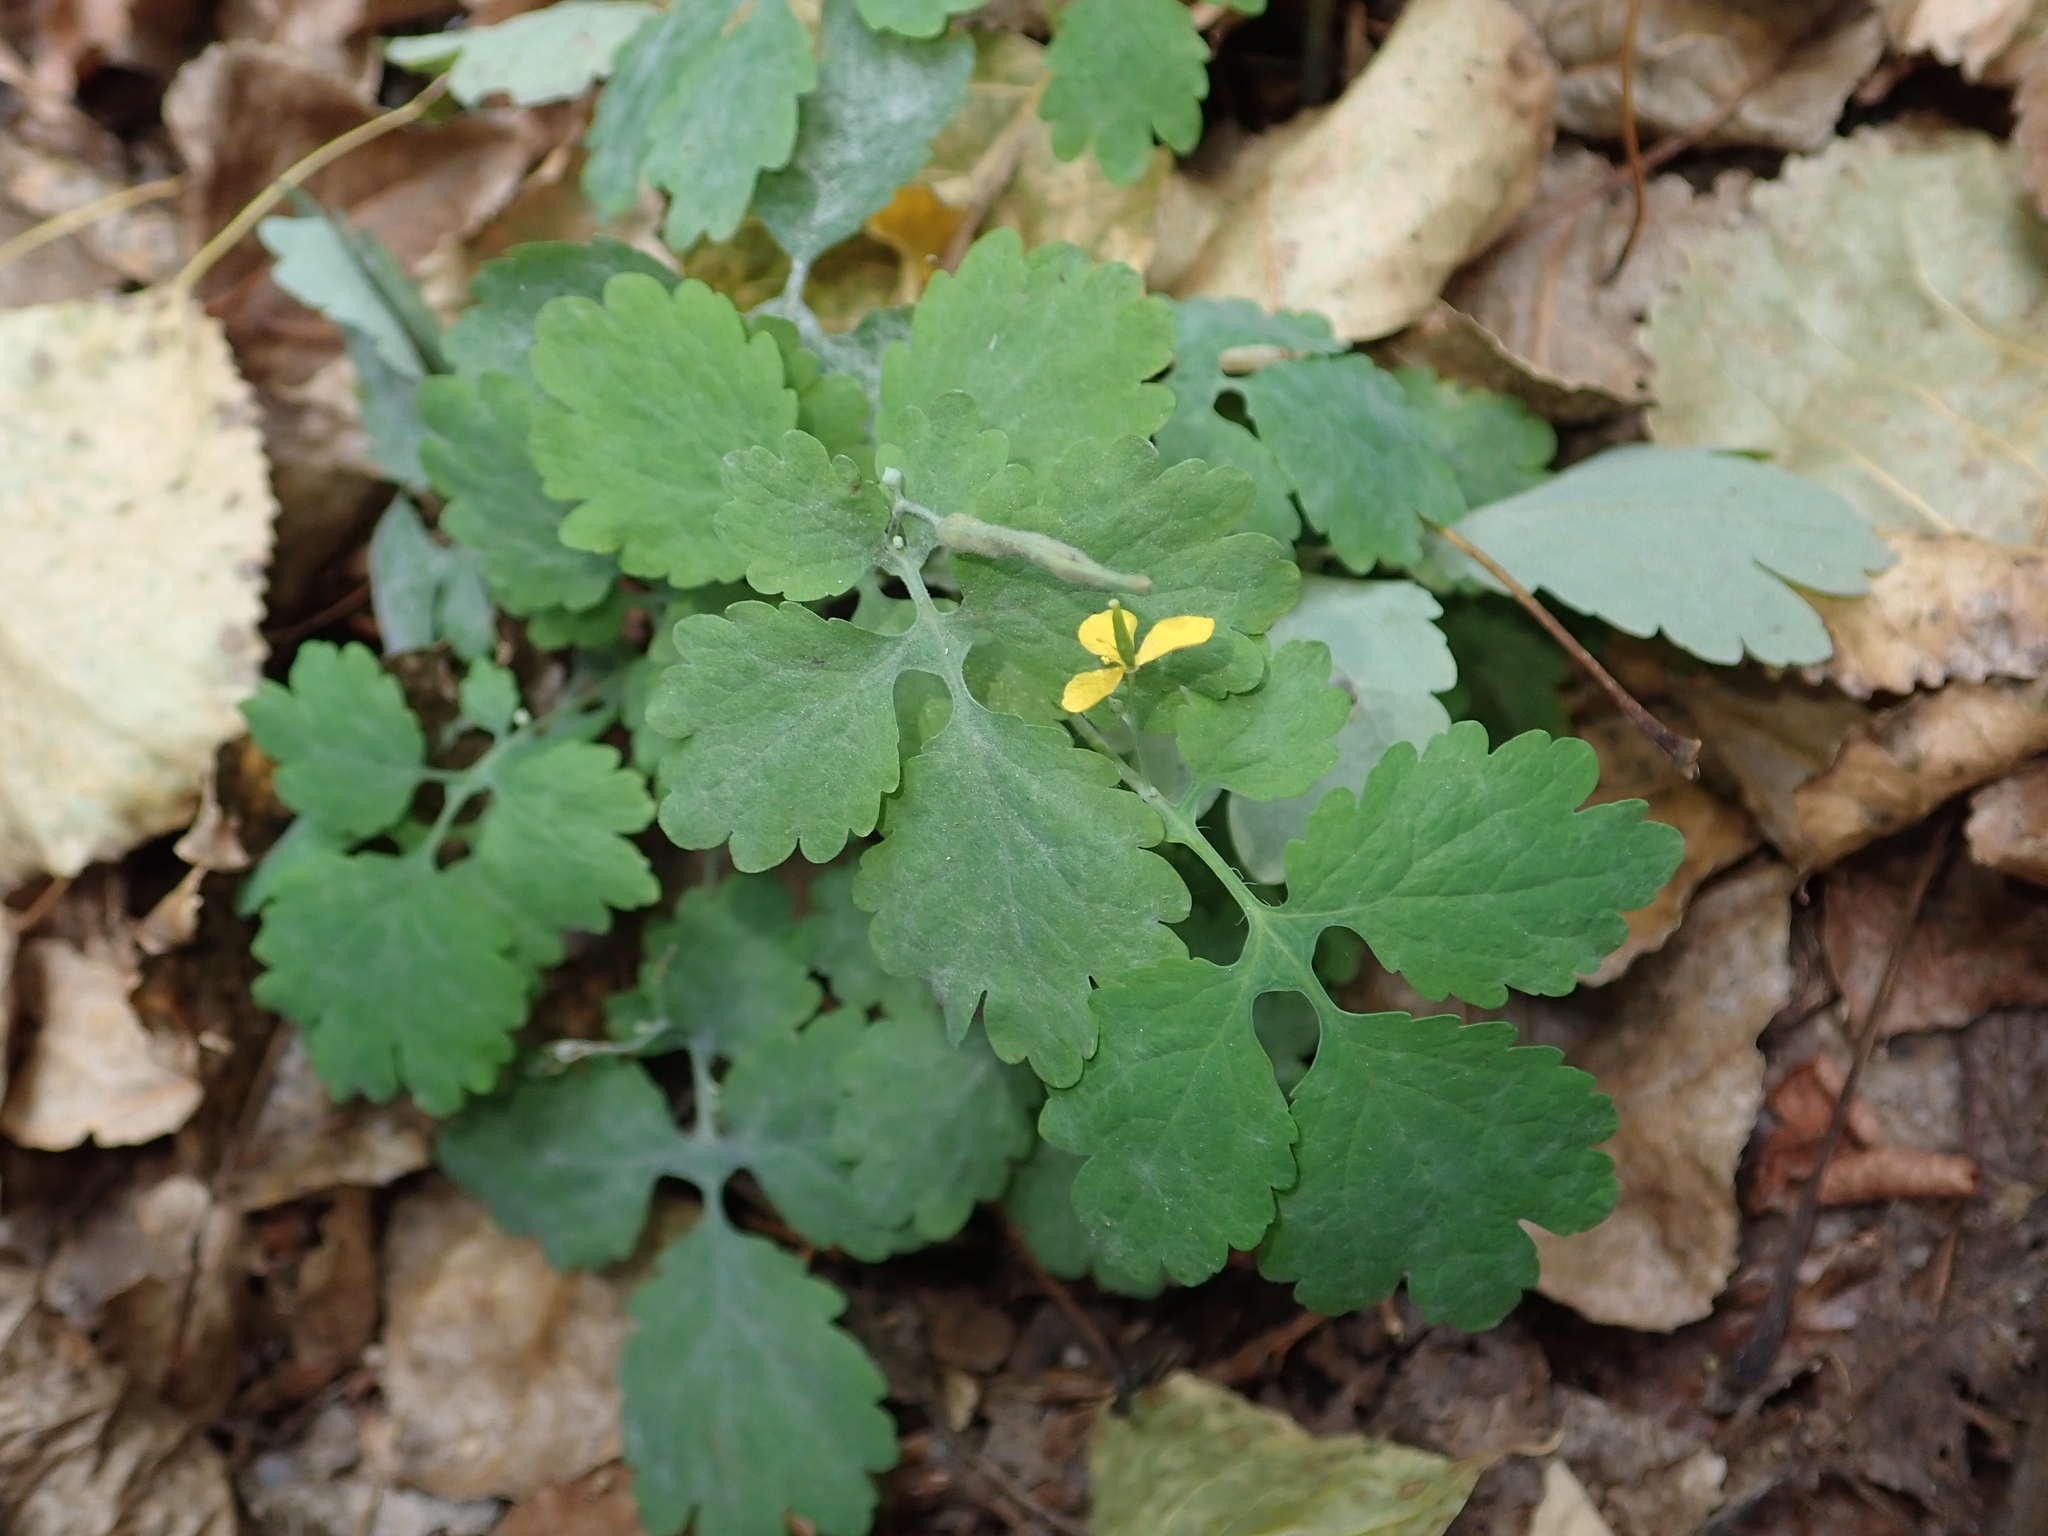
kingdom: Plantae
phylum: Tracheophyta
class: Magnoliopsida
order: Ranunculales
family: Papaveraceae
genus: Chelidonium
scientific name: Chelidonium majus
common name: Greater celandine
